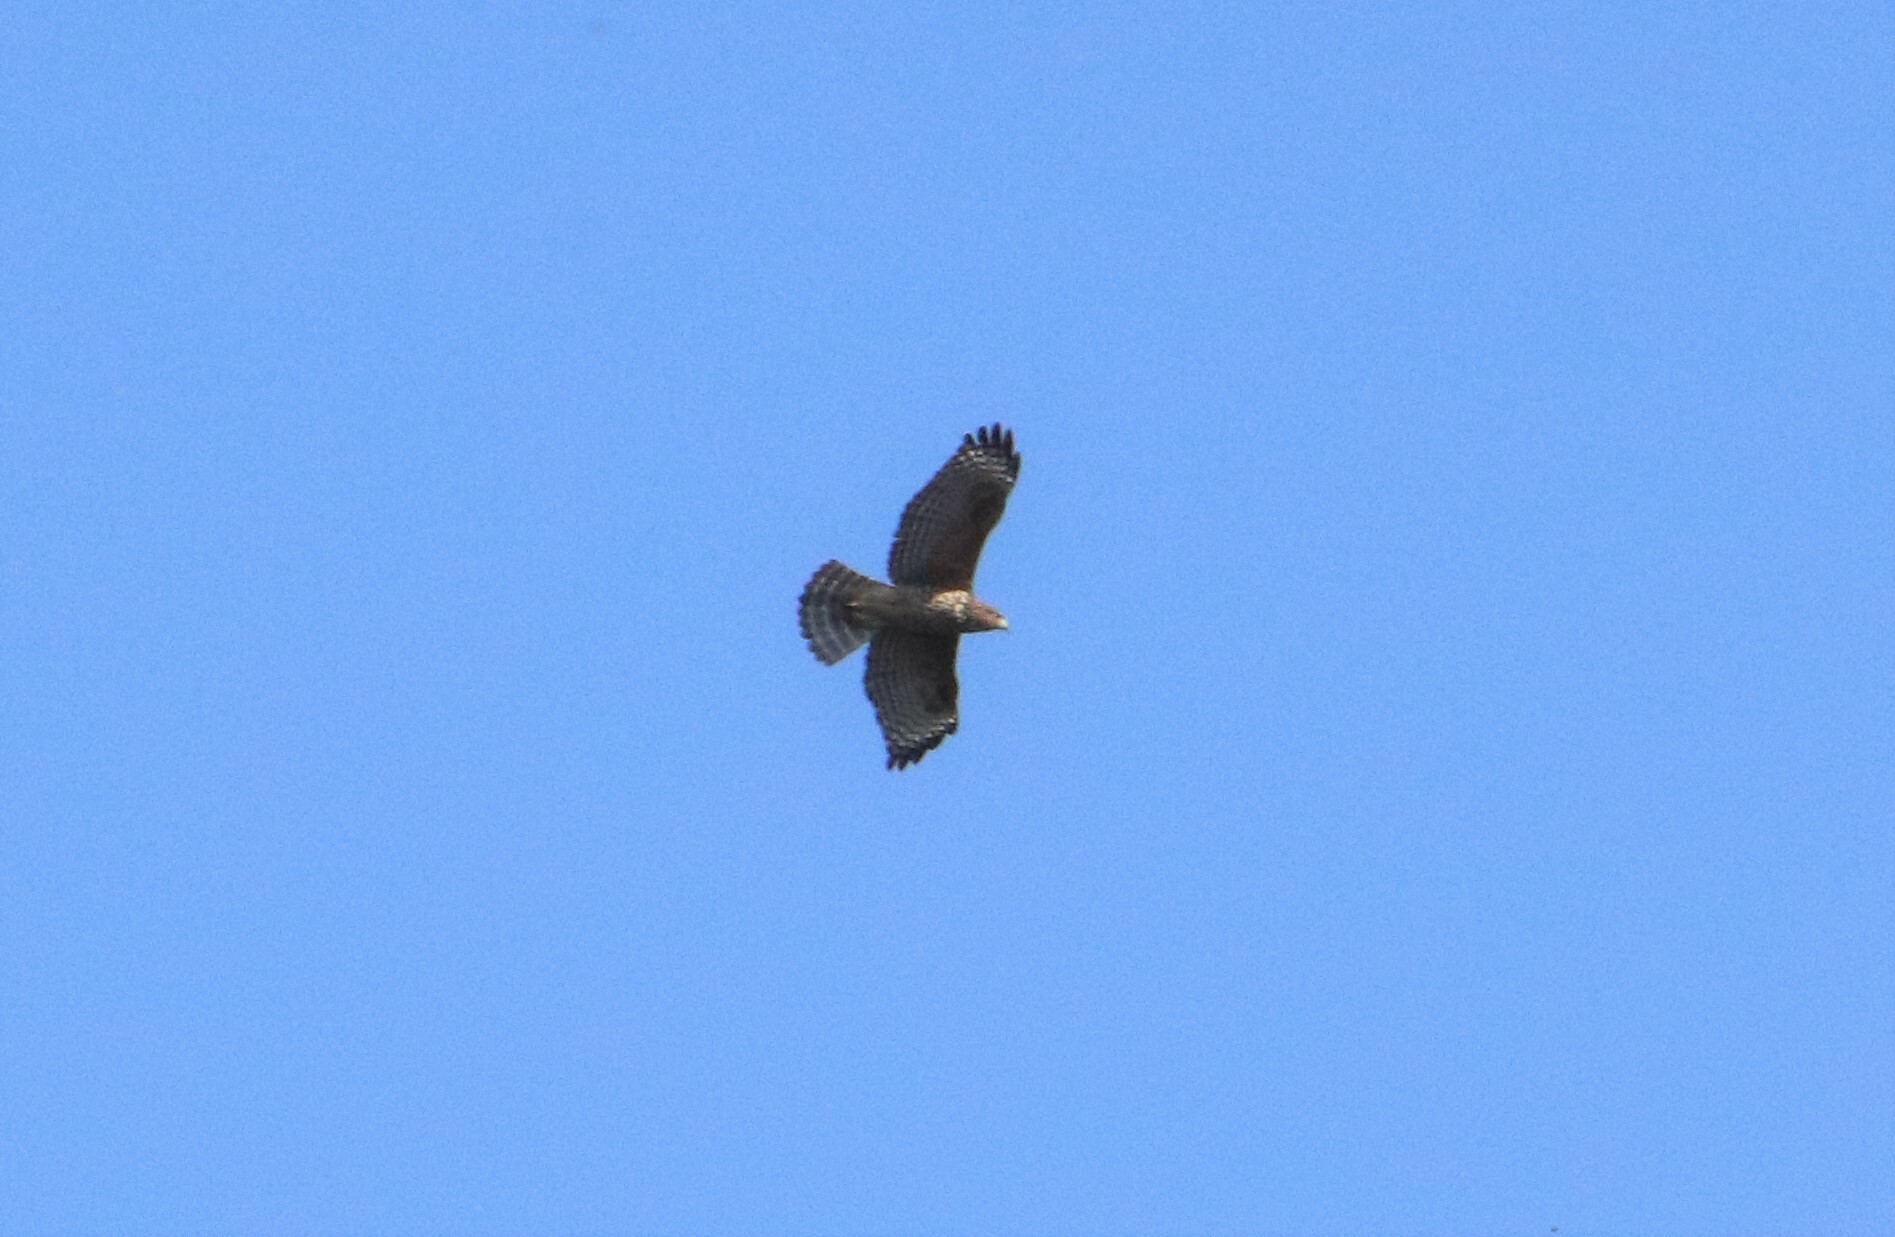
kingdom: Animalia
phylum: Chordata
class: Aves
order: Accipitriformes
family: Accipitridae
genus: Buteo
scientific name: Buteo lineatus
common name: Red-shouldered hawk
